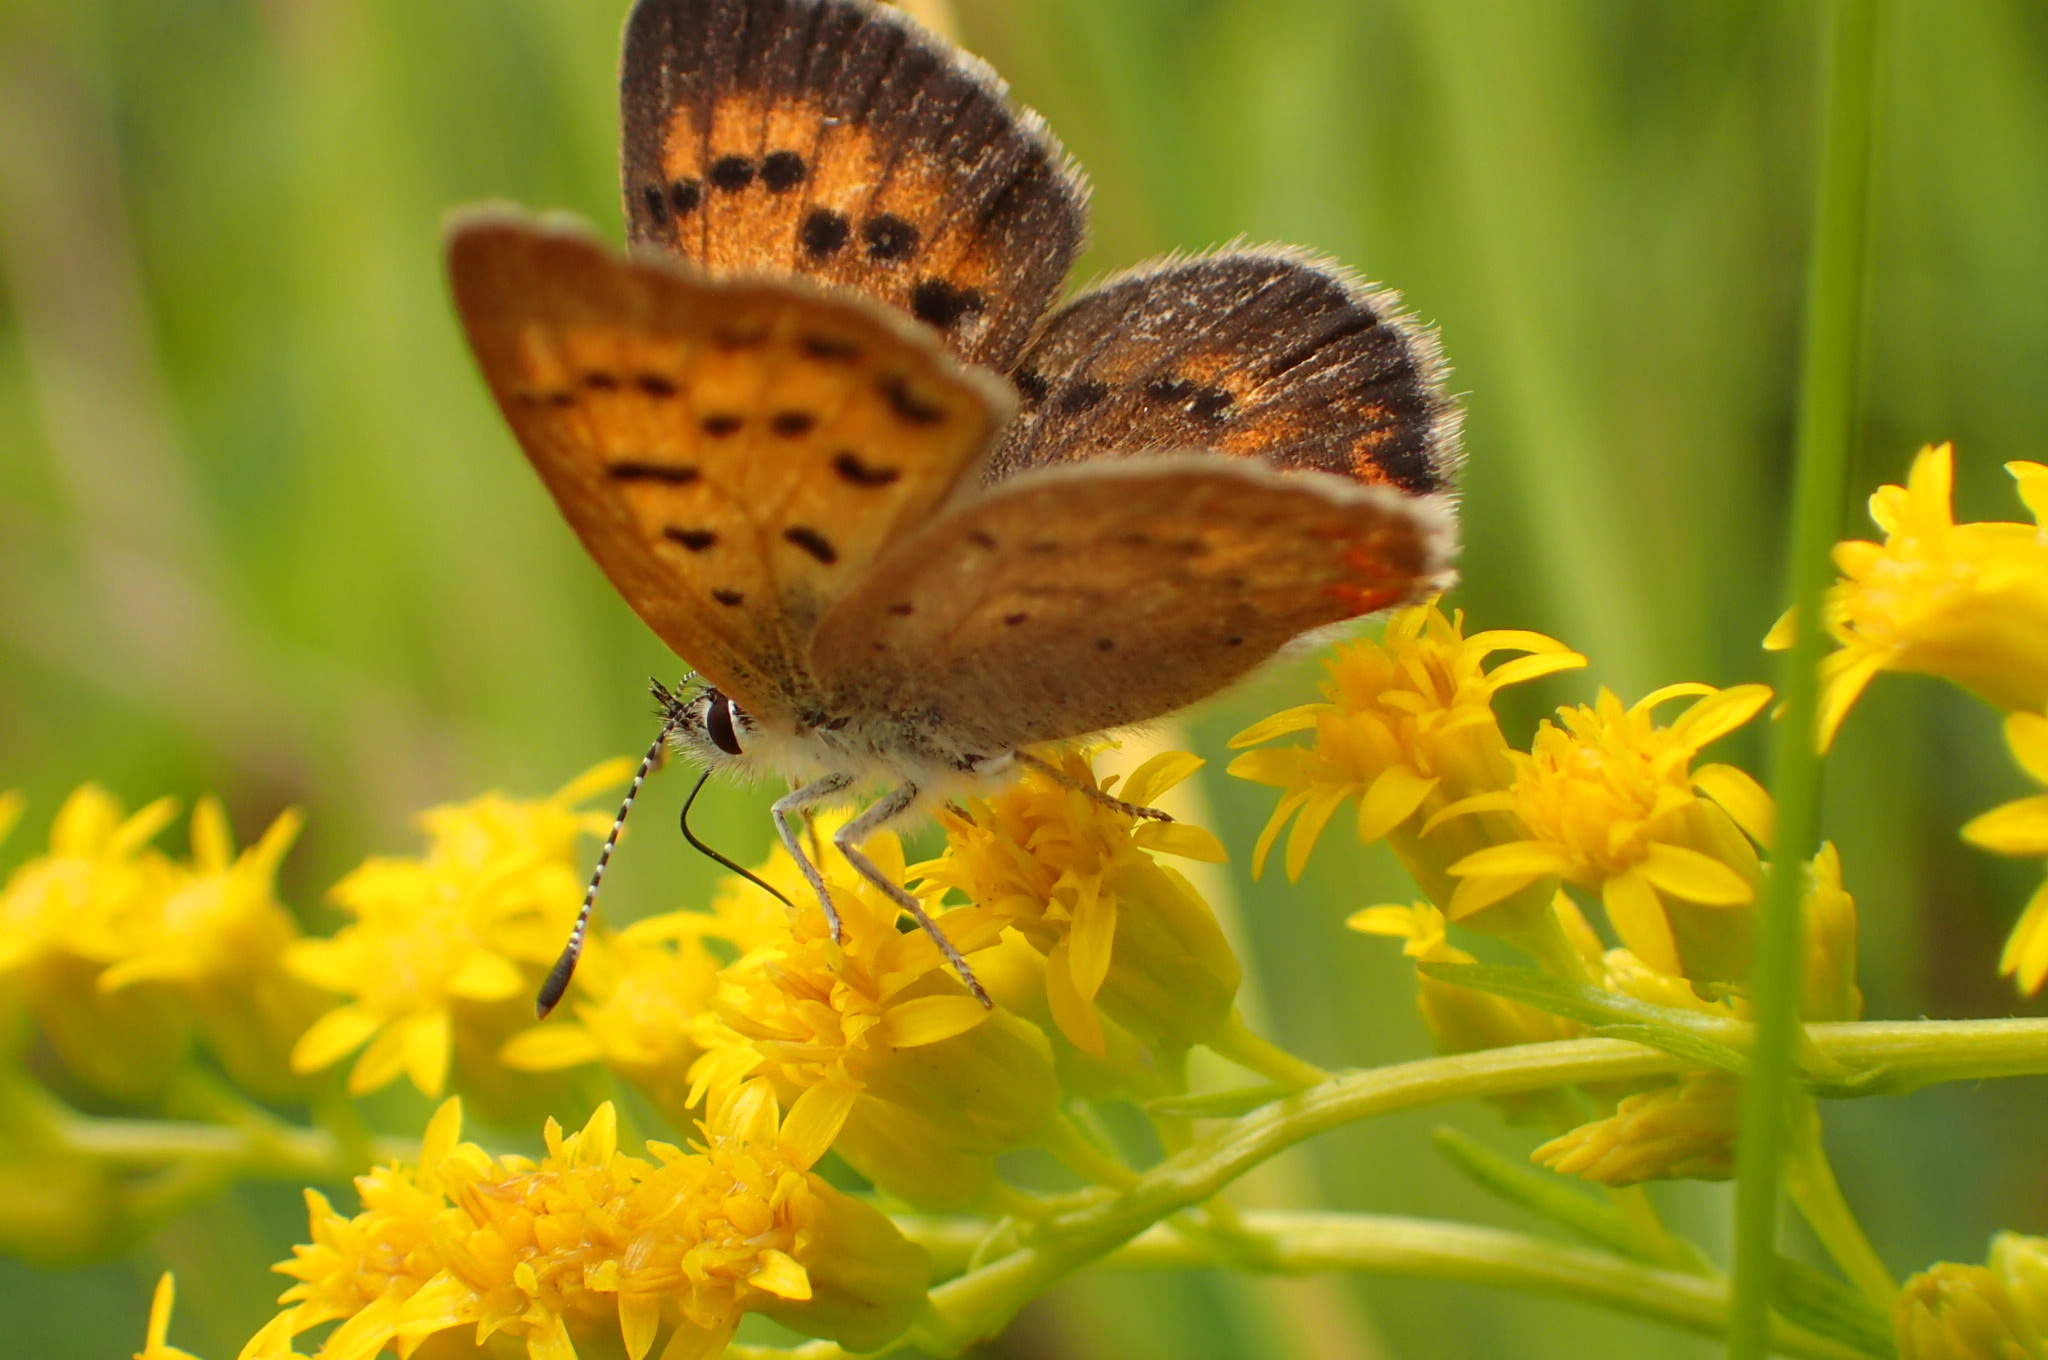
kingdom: Animalia
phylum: Arthropoda
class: Insecta
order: Lepidoptera
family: Lycaenidae
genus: Tharsalea
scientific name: Tharsalea dorcas
